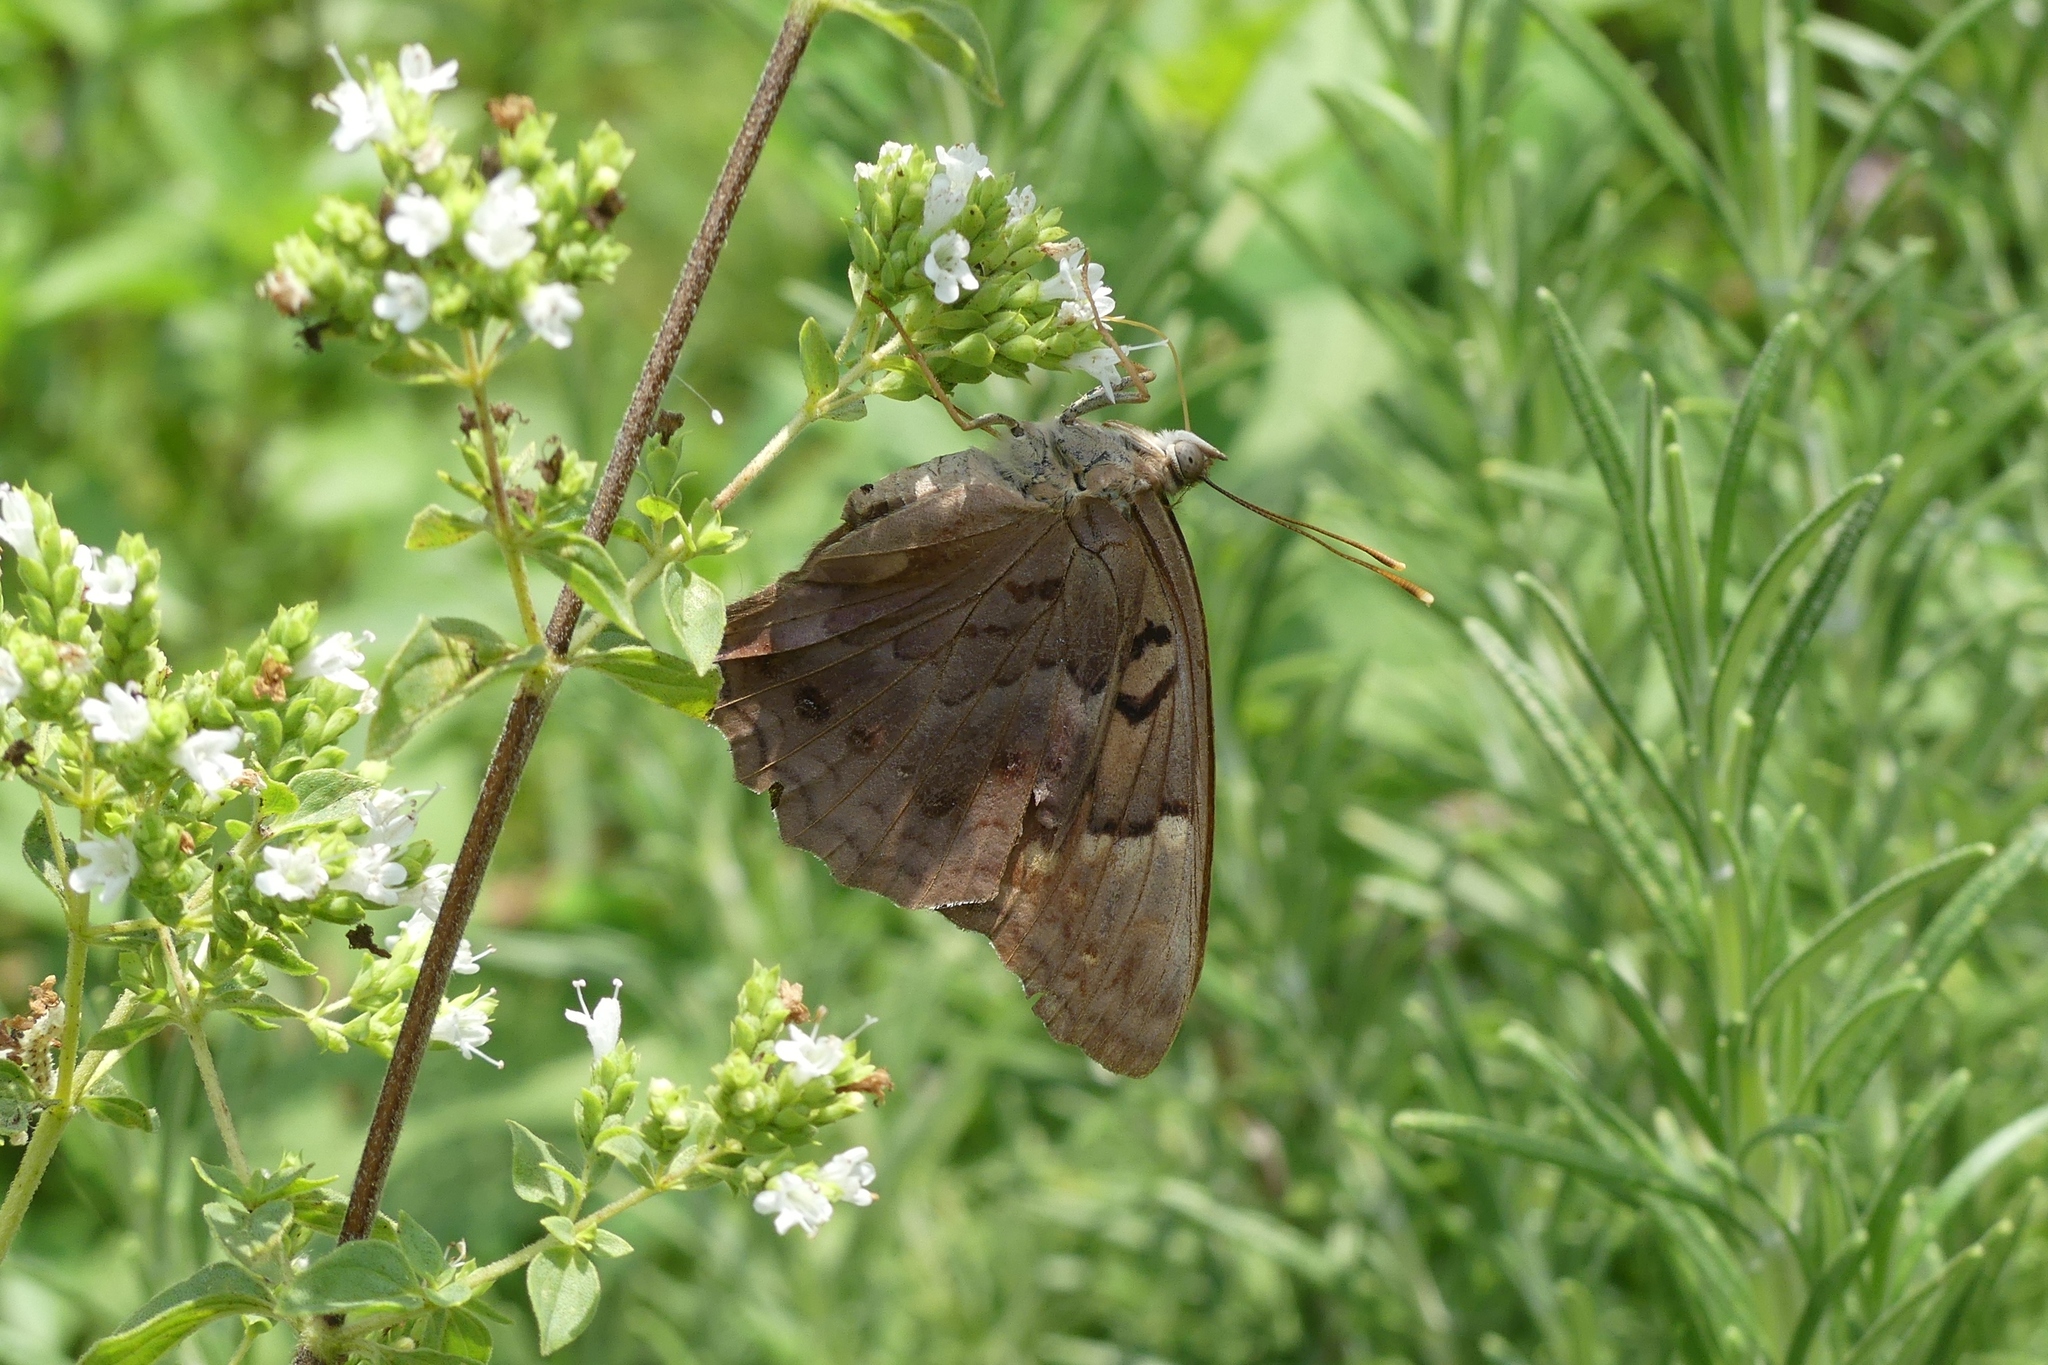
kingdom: Animalia
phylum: Arthropoda
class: Insecta
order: Lepidoptera
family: Nymphalidae
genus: Asterocampa
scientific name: Asterocampa clyton
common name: Tawny emperor
